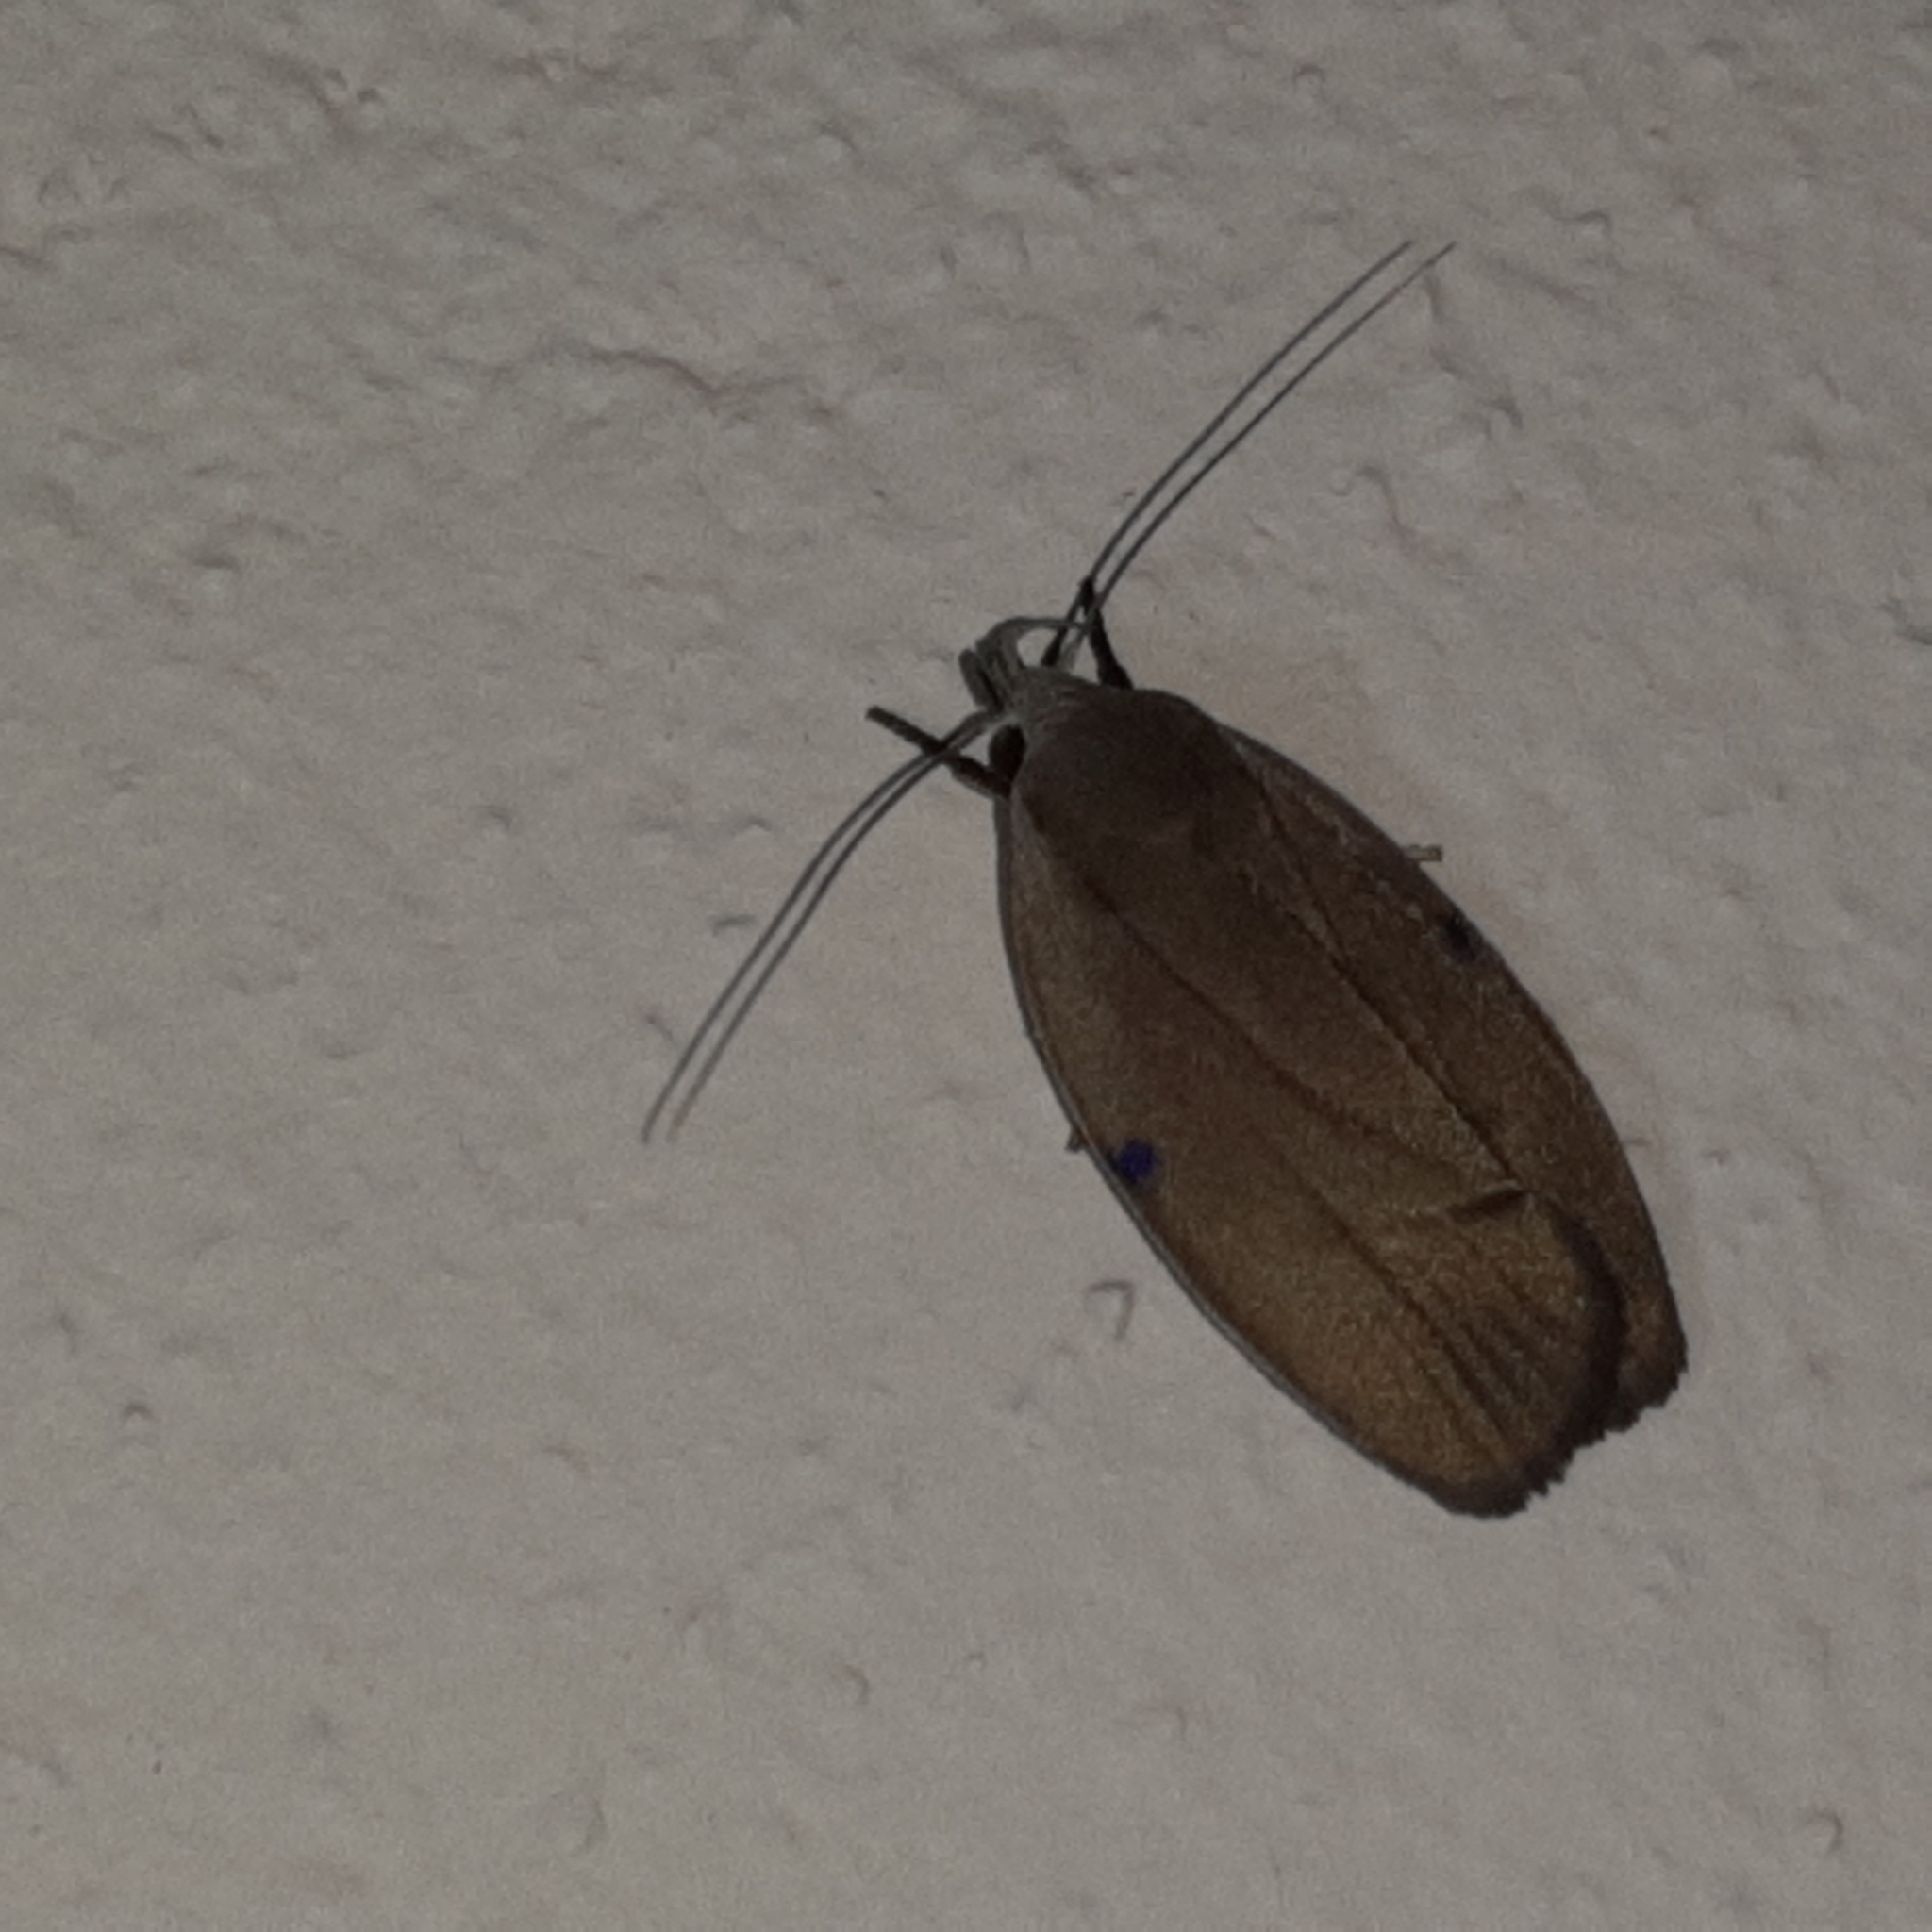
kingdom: Animalia
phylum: Arthropoda
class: Insecta
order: Lepidoptera
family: Depressariidae
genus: Stenoma
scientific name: Stenoma exarata
